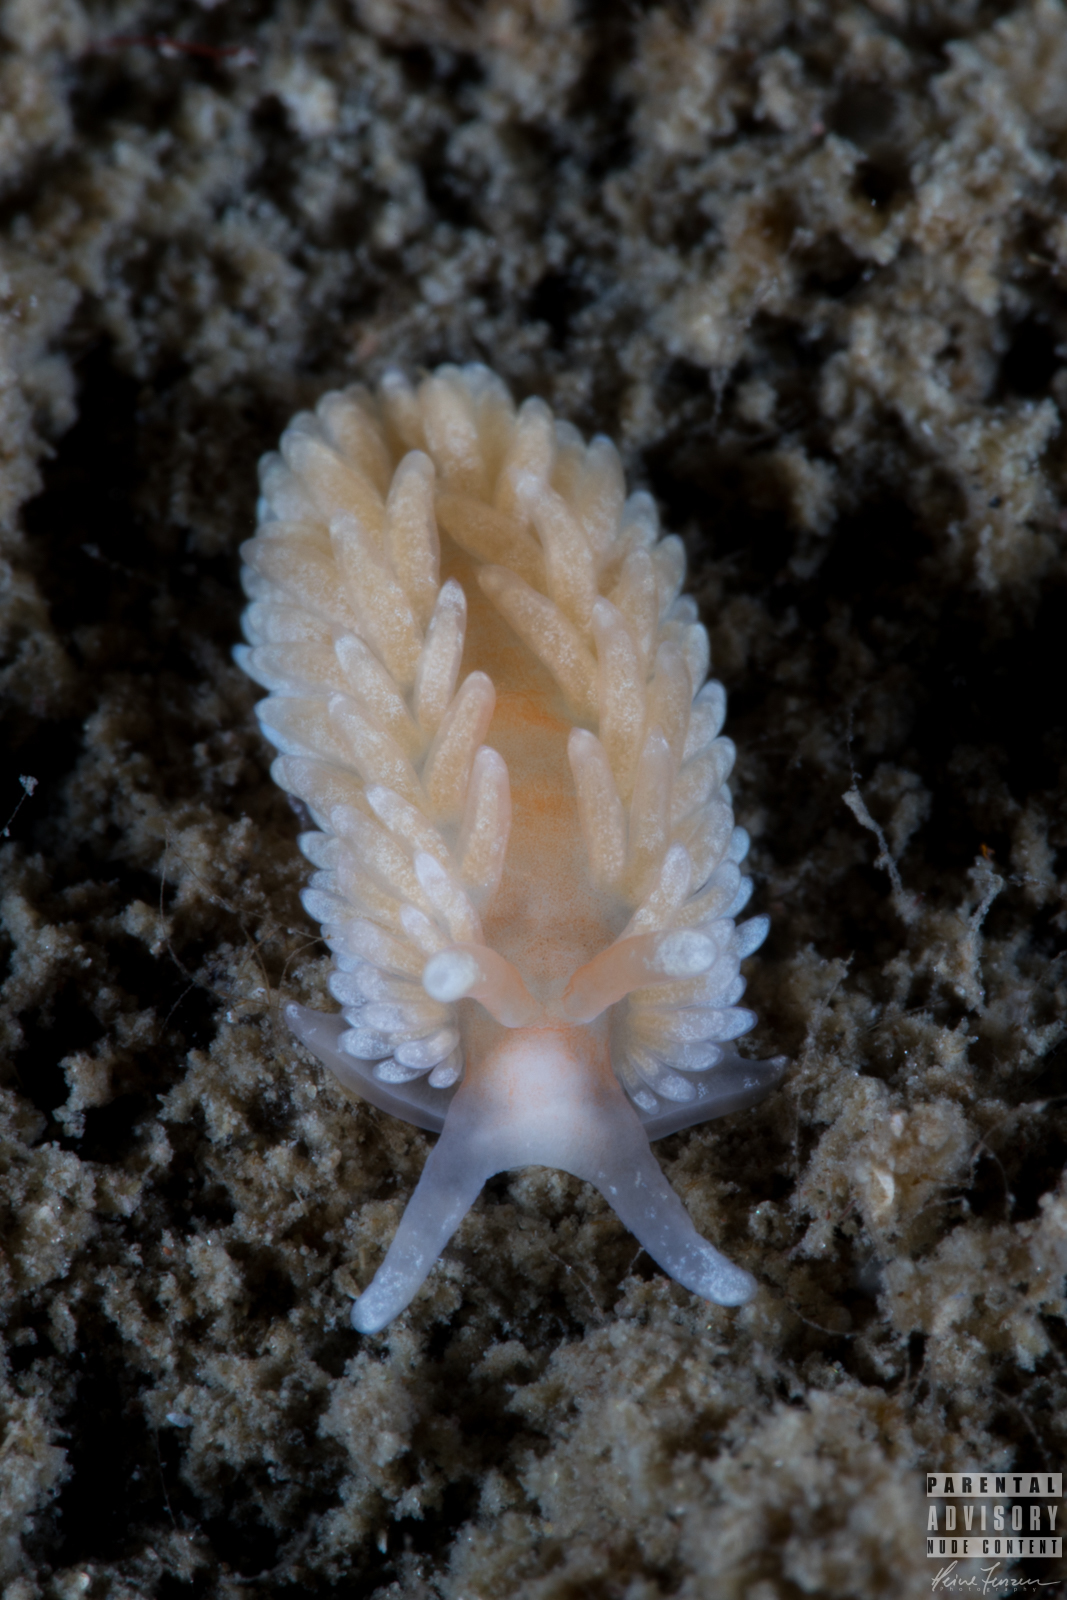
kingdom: Animalia
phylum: Mollusca
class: Gastropoda
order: Nudibranchia
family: Aeolidiidae
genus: Aeolidiella
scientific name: Aeolidiella glauca
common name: Orange-brown aeolid
